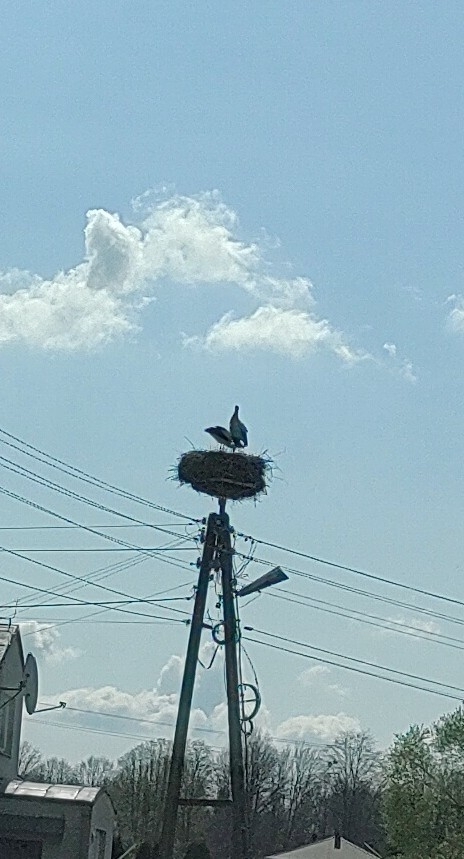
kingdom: Animalia
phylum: Chordata
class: Aves
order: Ciconiiformes
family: Ciconiidae
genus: Ciconia
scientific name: Ciconia ciconia
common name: White stork
